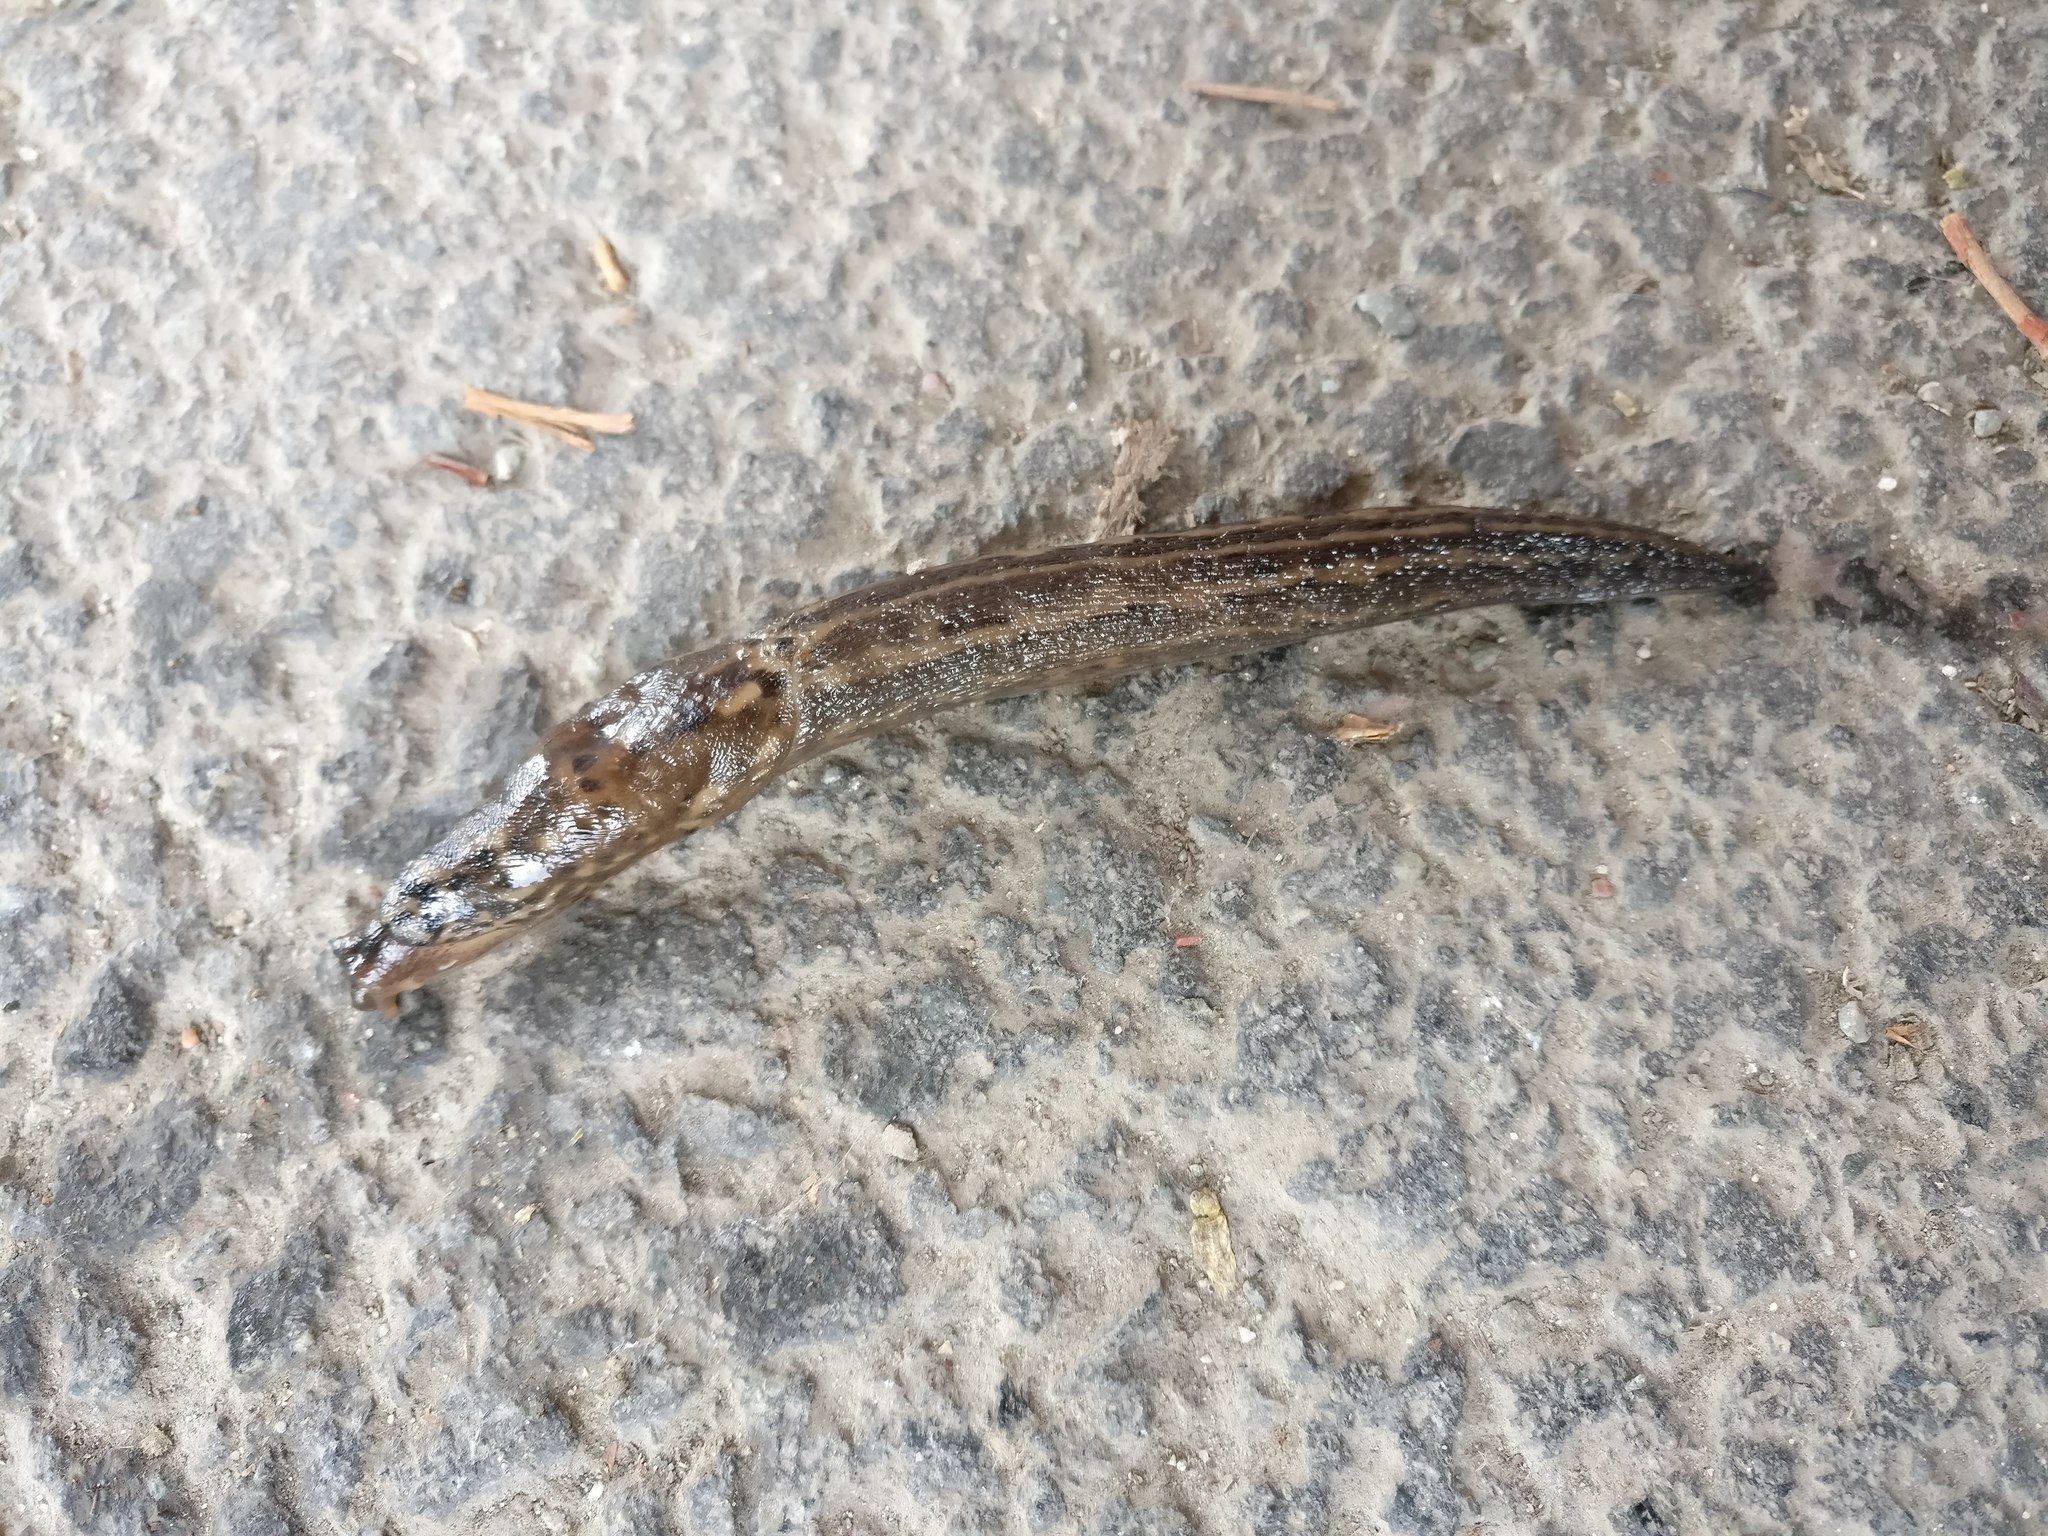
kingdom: Animalia
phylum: Mollusca
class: Gastropoda
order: Stylommatophora
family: Limacidae
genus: Limax
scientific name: Limax maximus
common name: Great grey slug
